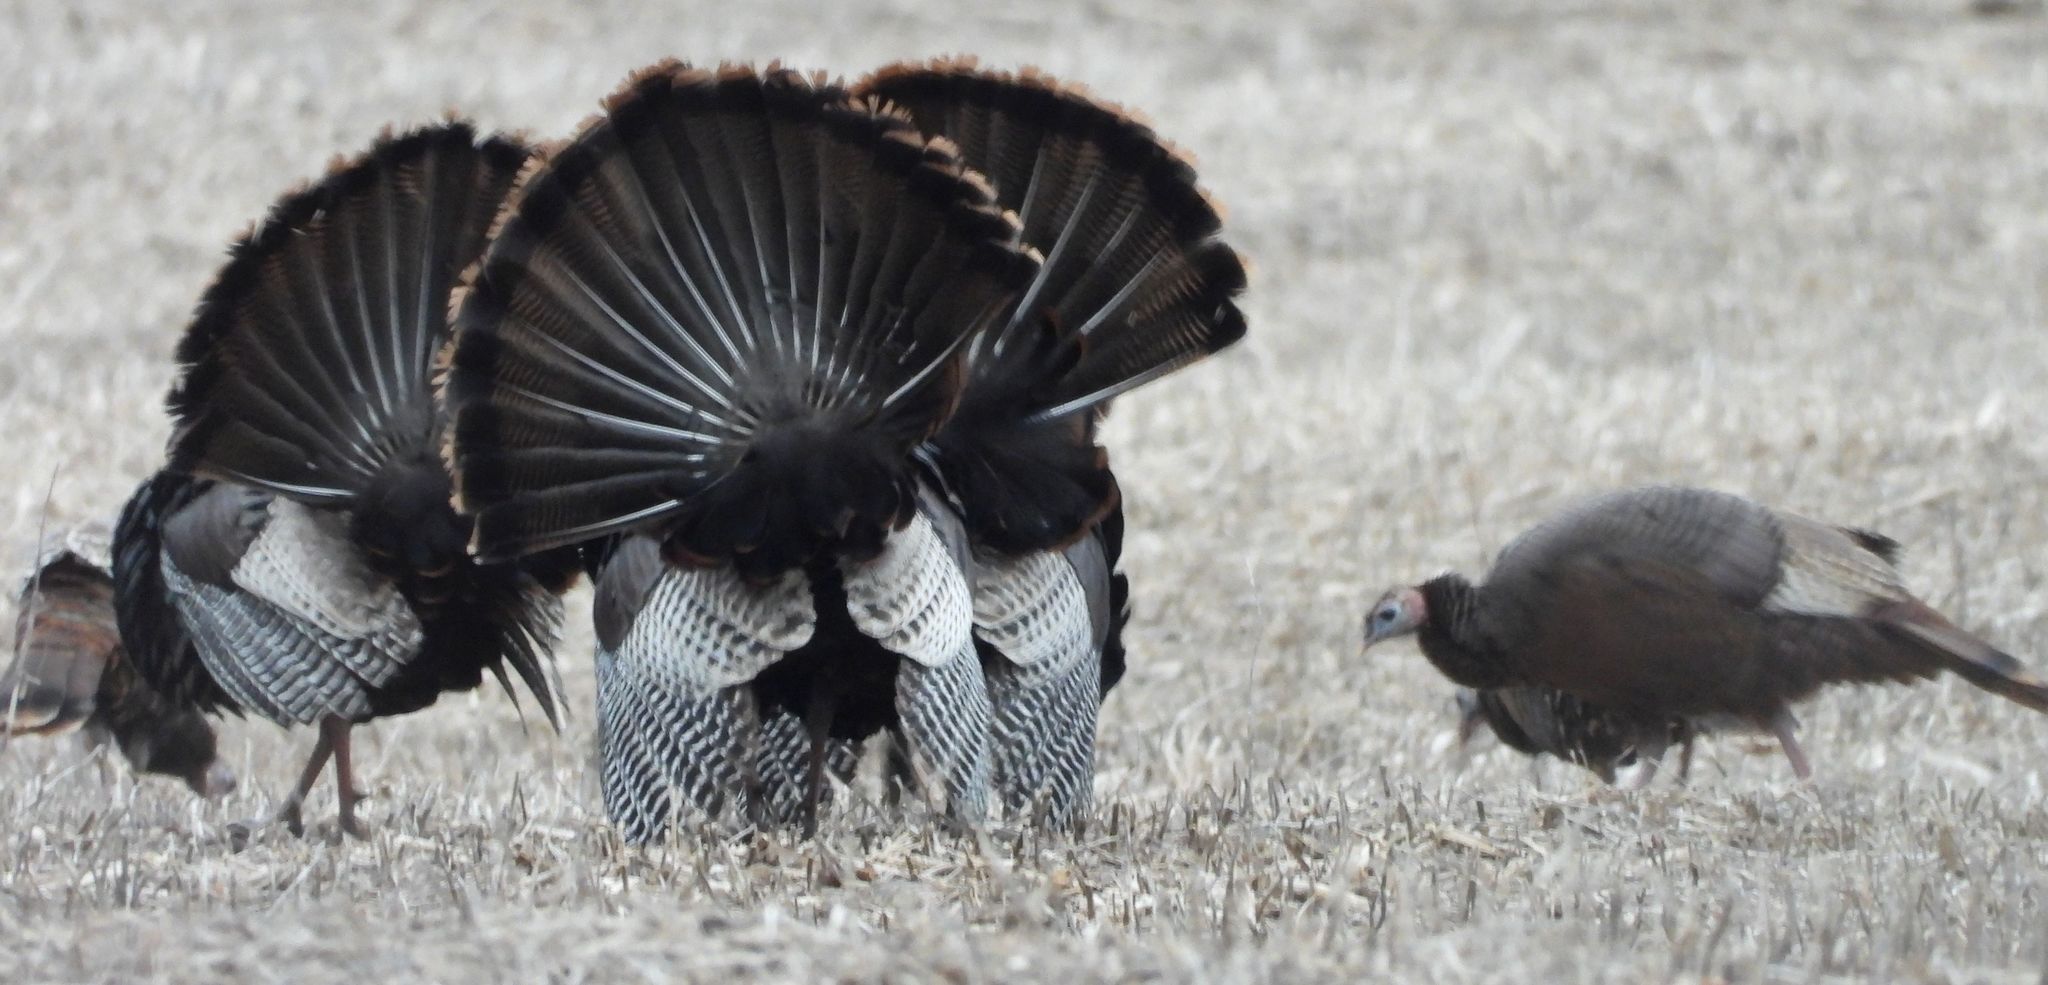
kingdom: Animalia
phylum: Chordata
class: Aves
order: Galliformes
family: Phasianidae
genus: Meleagris
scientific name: Meleagris gallopavo
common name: Wild turkey
